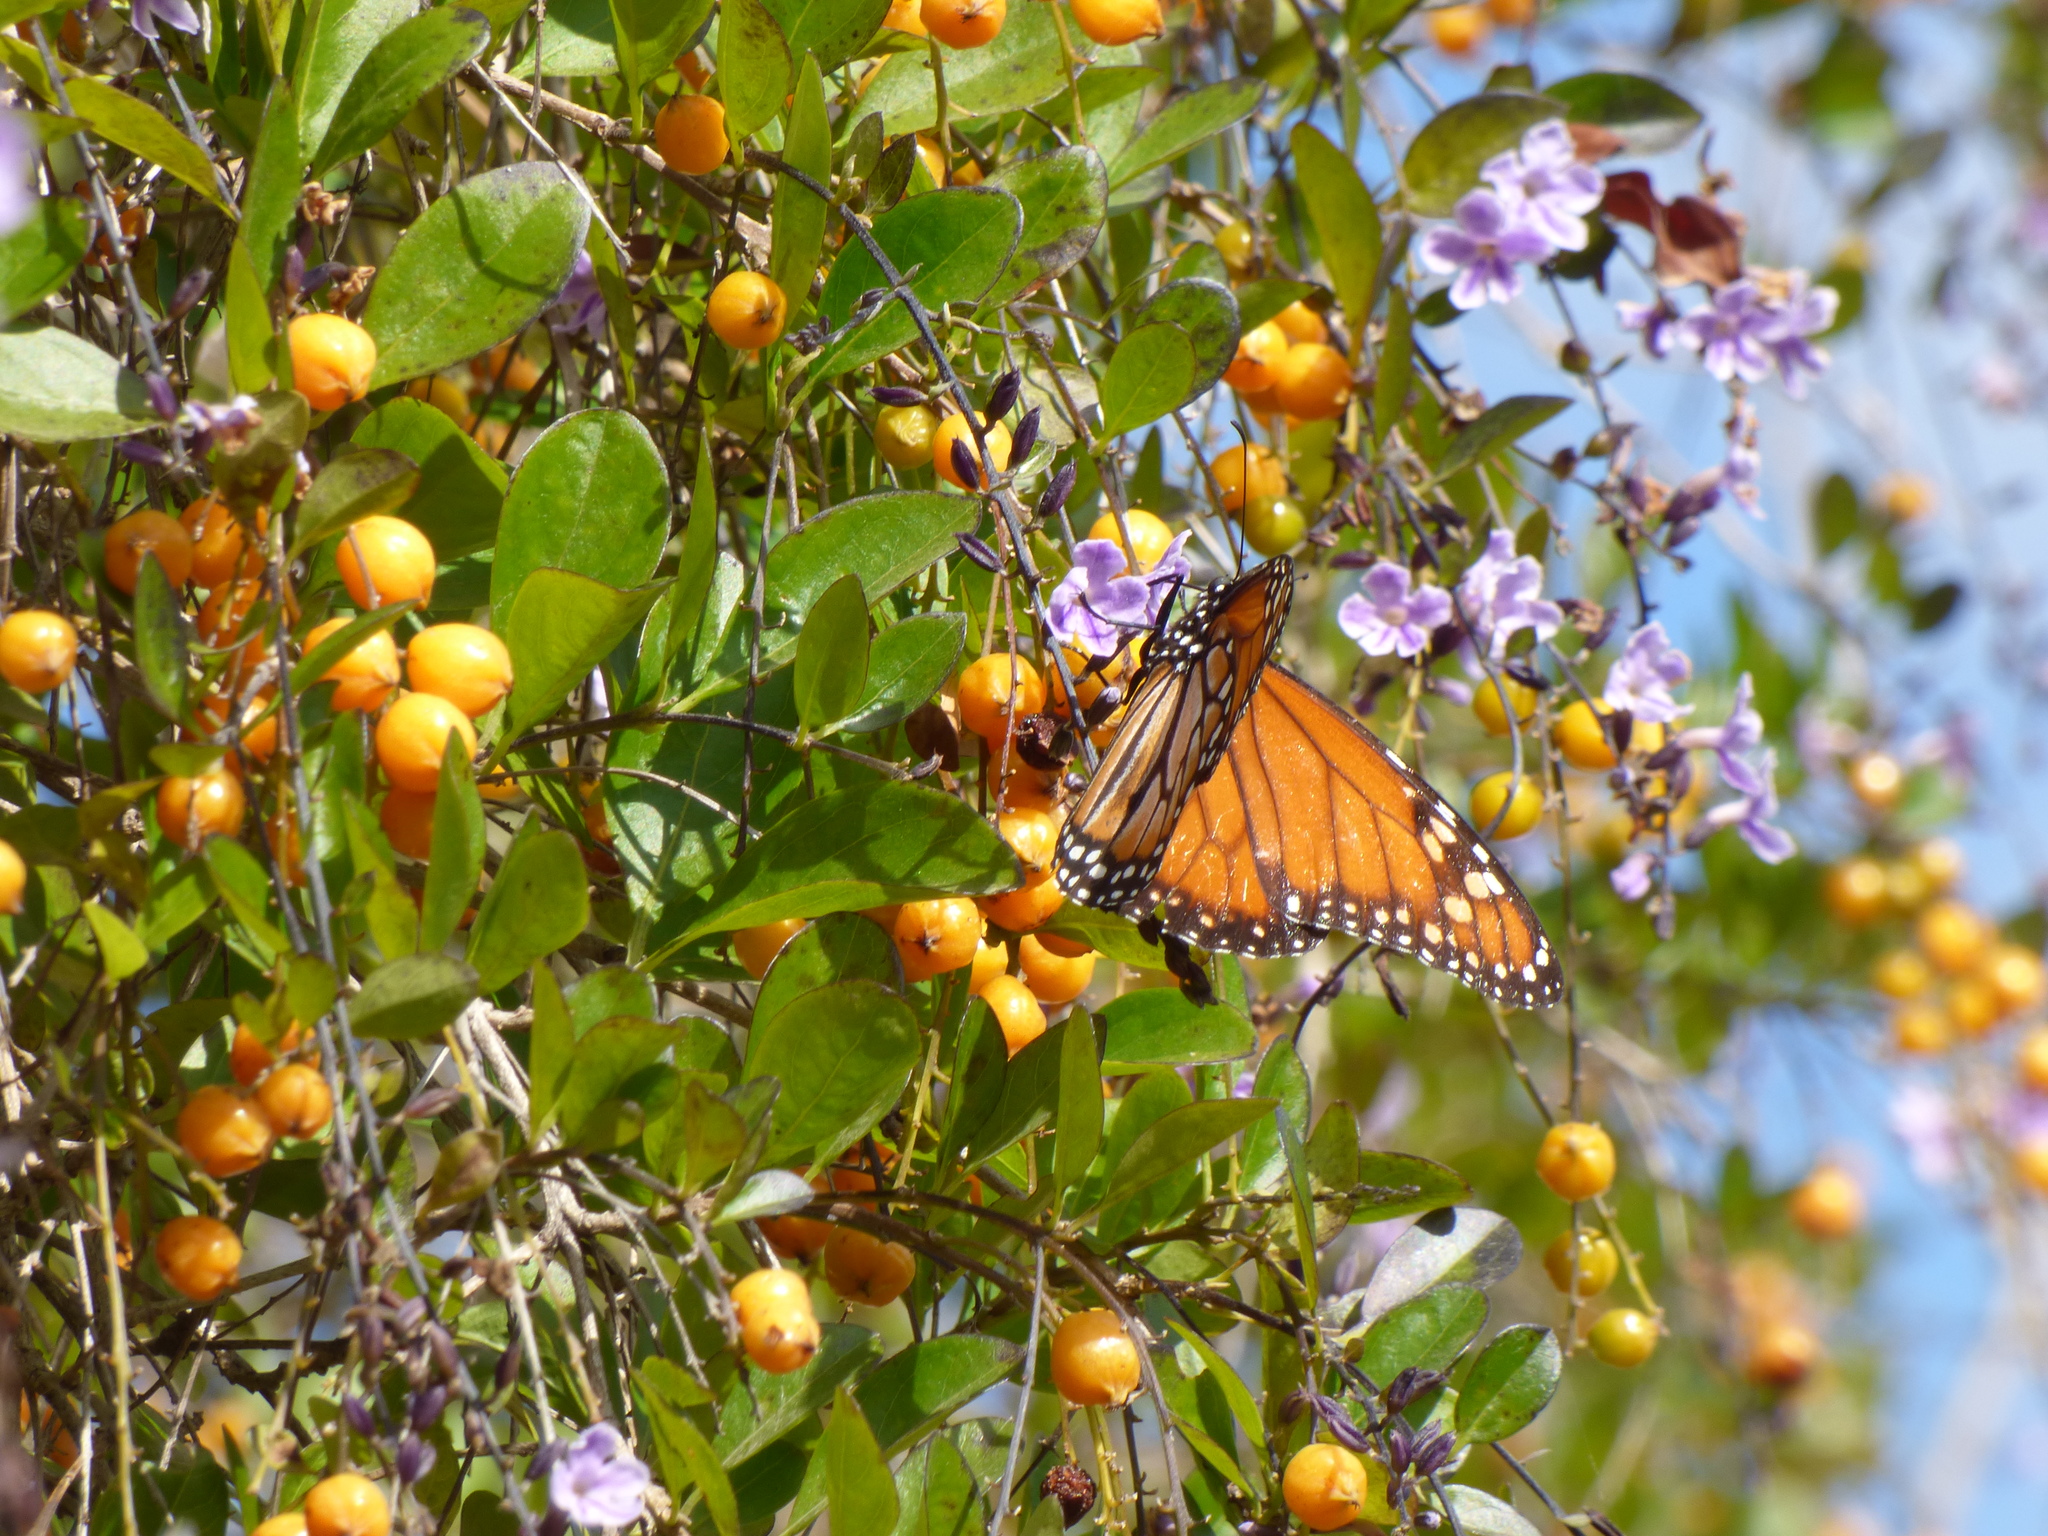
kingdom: Animalia
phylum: Arthropoda
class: Insecta
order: Lepidoptera
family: Nymphalidae
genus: Danaus
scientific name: Danaus erippus
